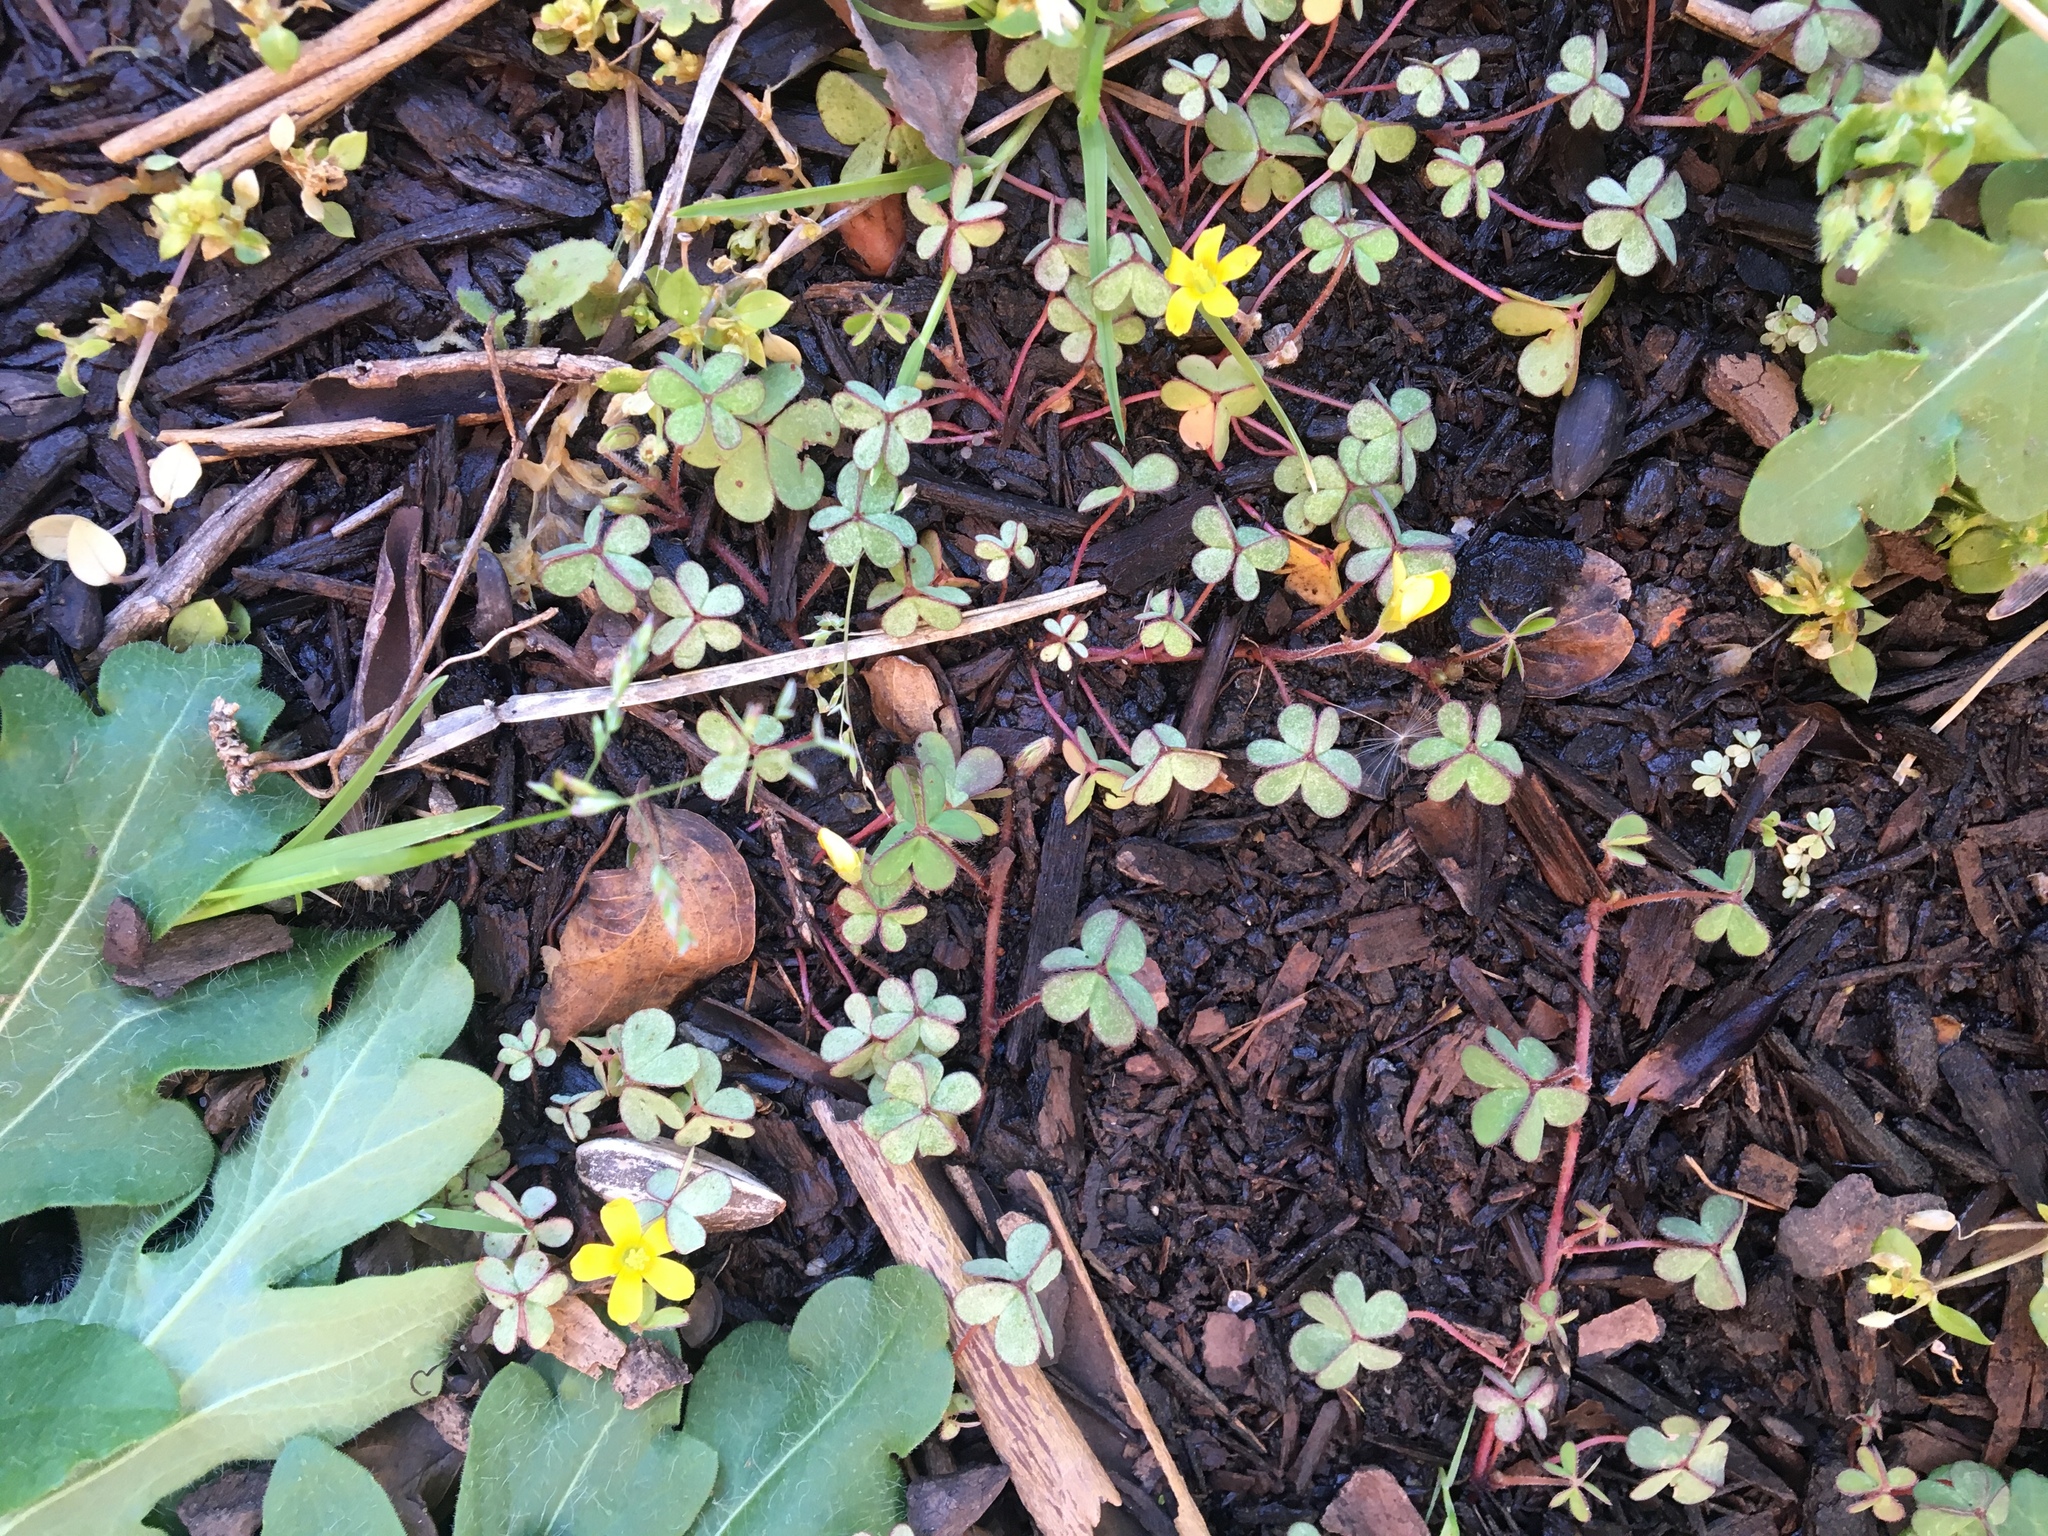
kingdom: Plantae
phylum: Tracheophyta
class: Magnoliopsida
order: Oxalidales
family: Oxalidaceae
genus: Oxalis
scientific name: Oxalis corniculata
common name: Procumbent yellow-sorrel
